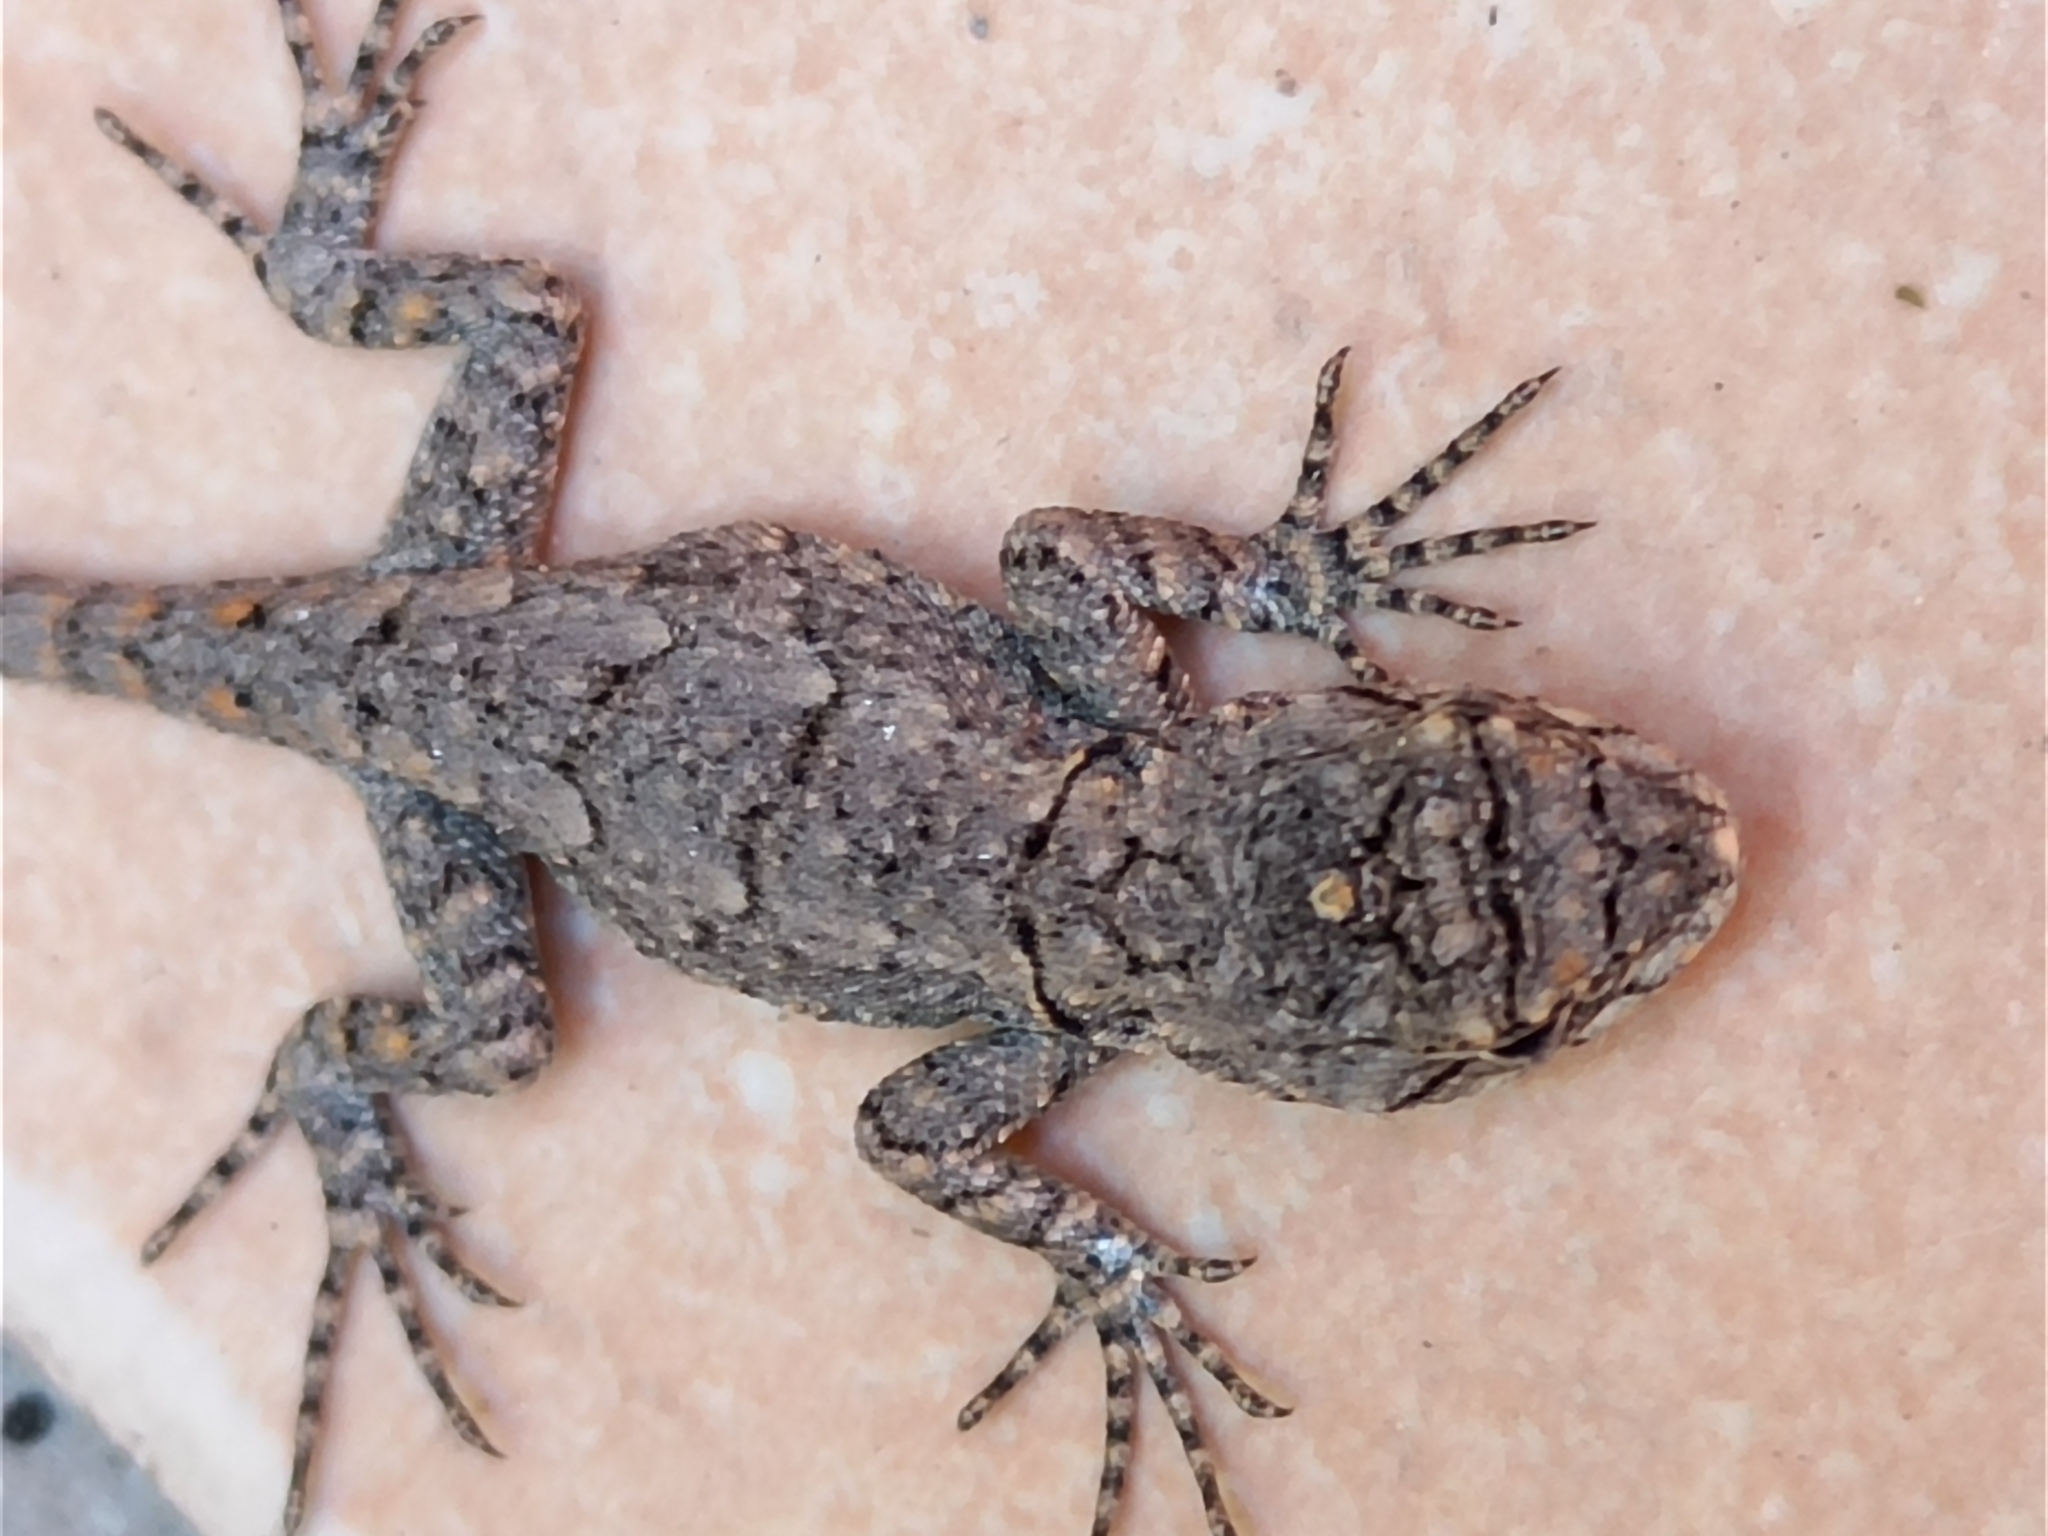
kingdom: Animalia
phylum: Chordata
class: Squamata
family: Phrynosomatidae
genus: Sceloporus
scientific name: Sceloporus grammicus
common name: Mesquite lizard
